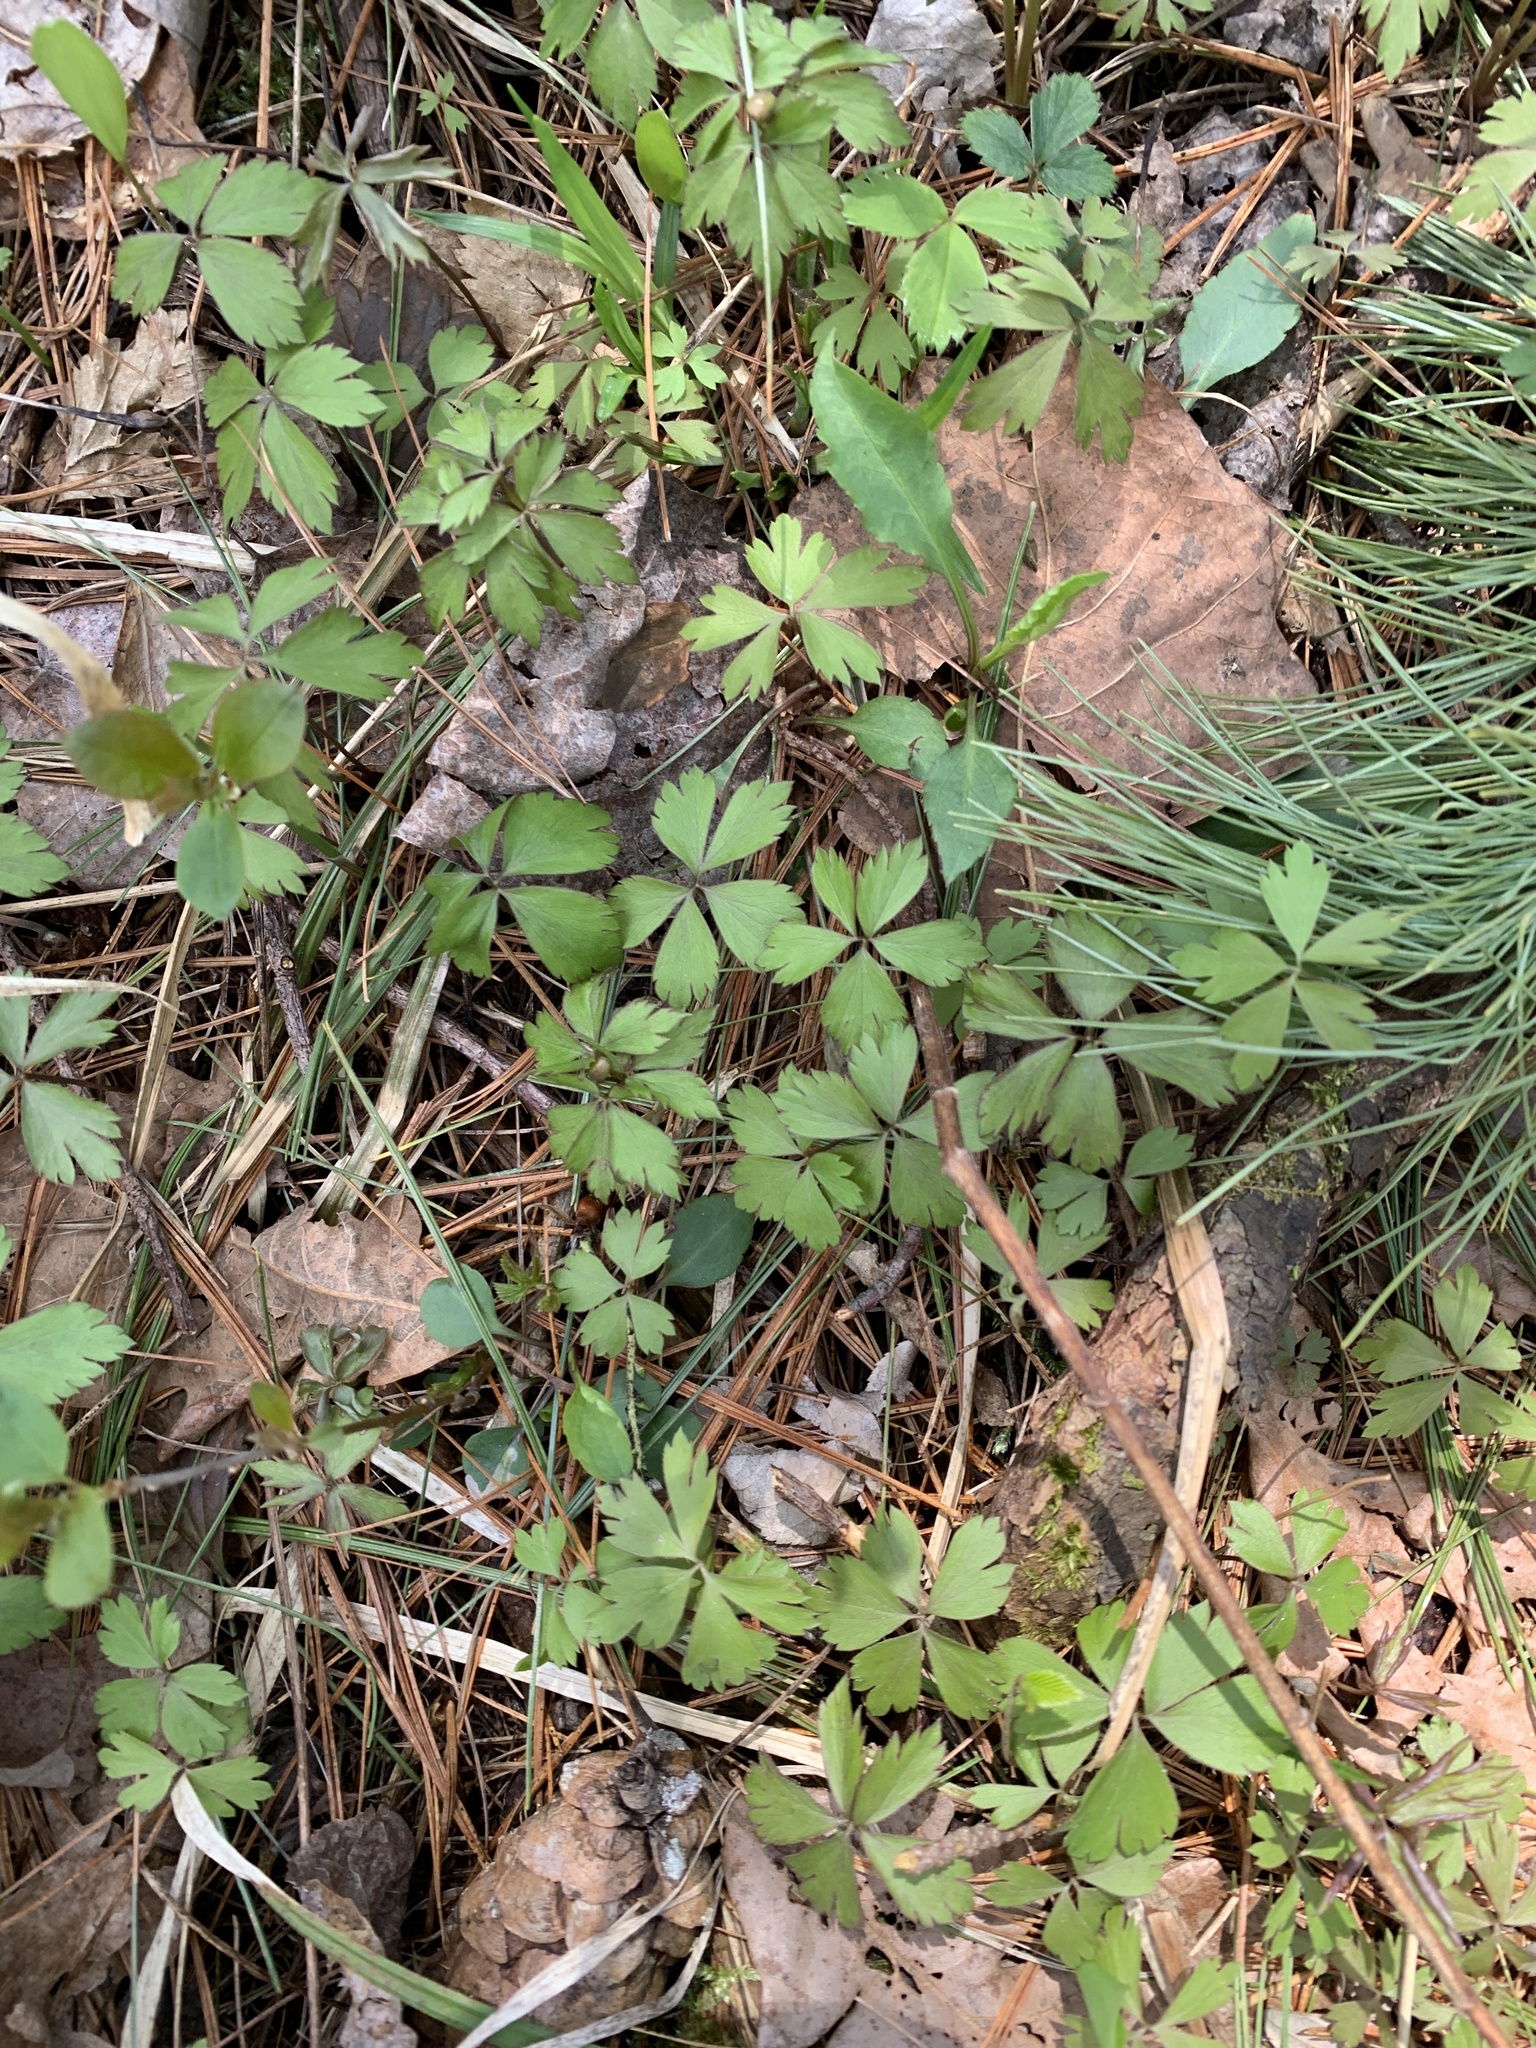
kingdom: Plantae
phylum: Tracheophyta
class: Magnoliopsida
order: Ranunculales
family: Ranunculaceae
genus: Anemone
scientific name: Anemone quinquefolia
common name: Wood anemone
